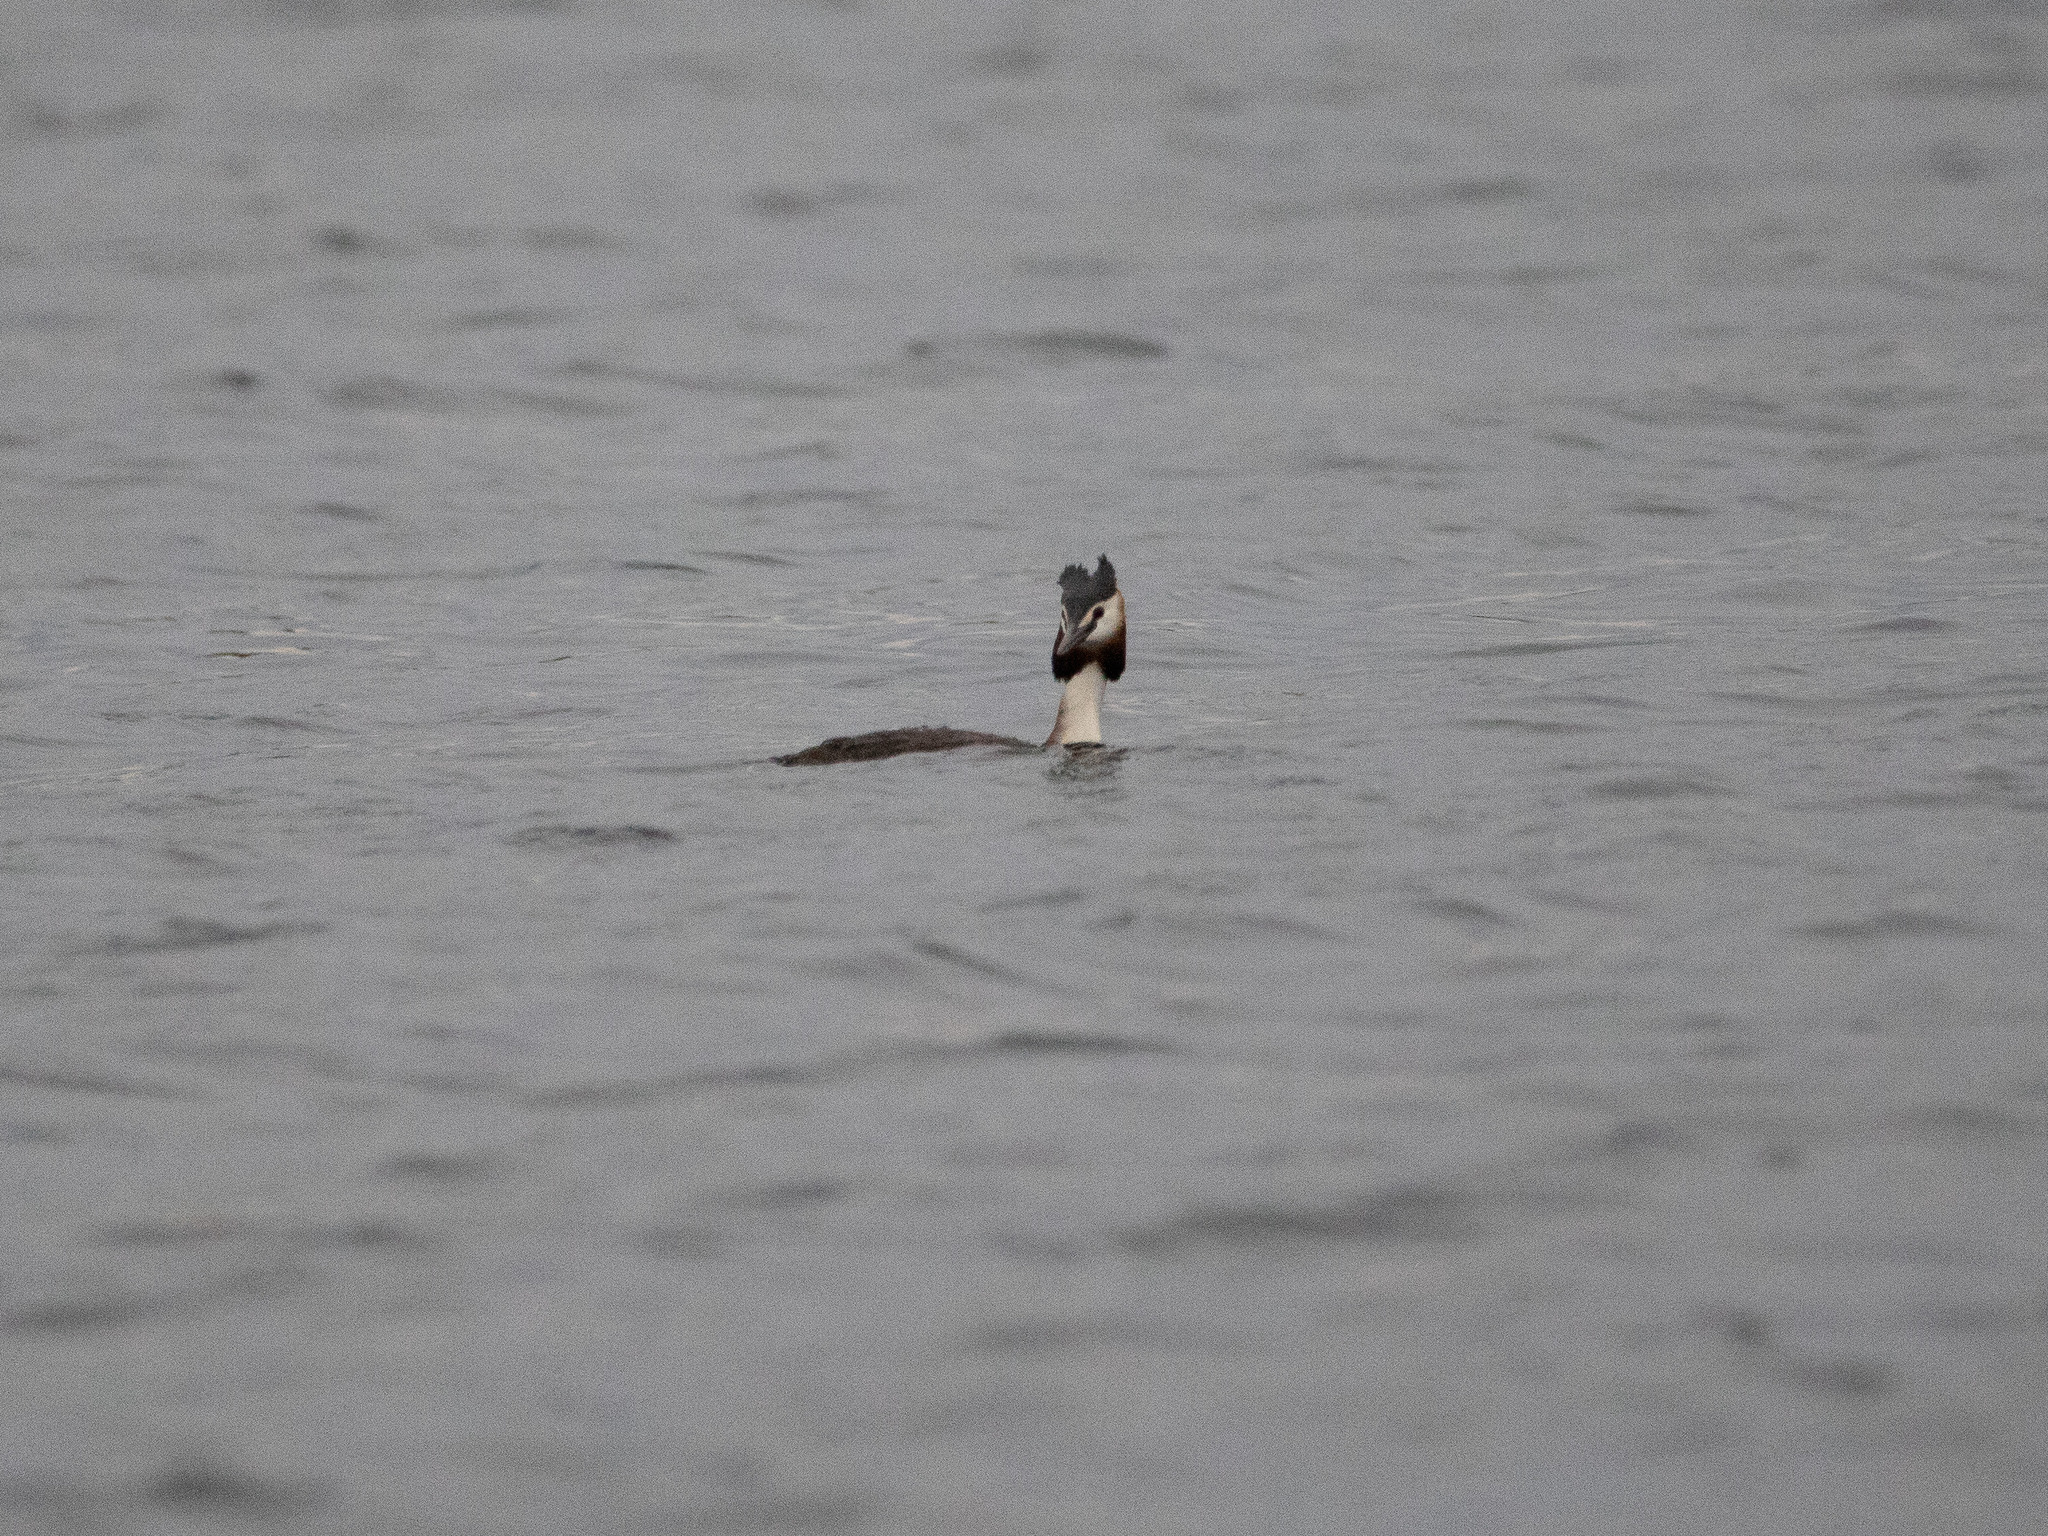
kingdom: Animalia
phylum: Chordata
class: Aves
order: Podicipediformes
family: Podicipedidae
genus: Podiceps
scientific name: Podiceps cristatus
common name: Great crested grebe
